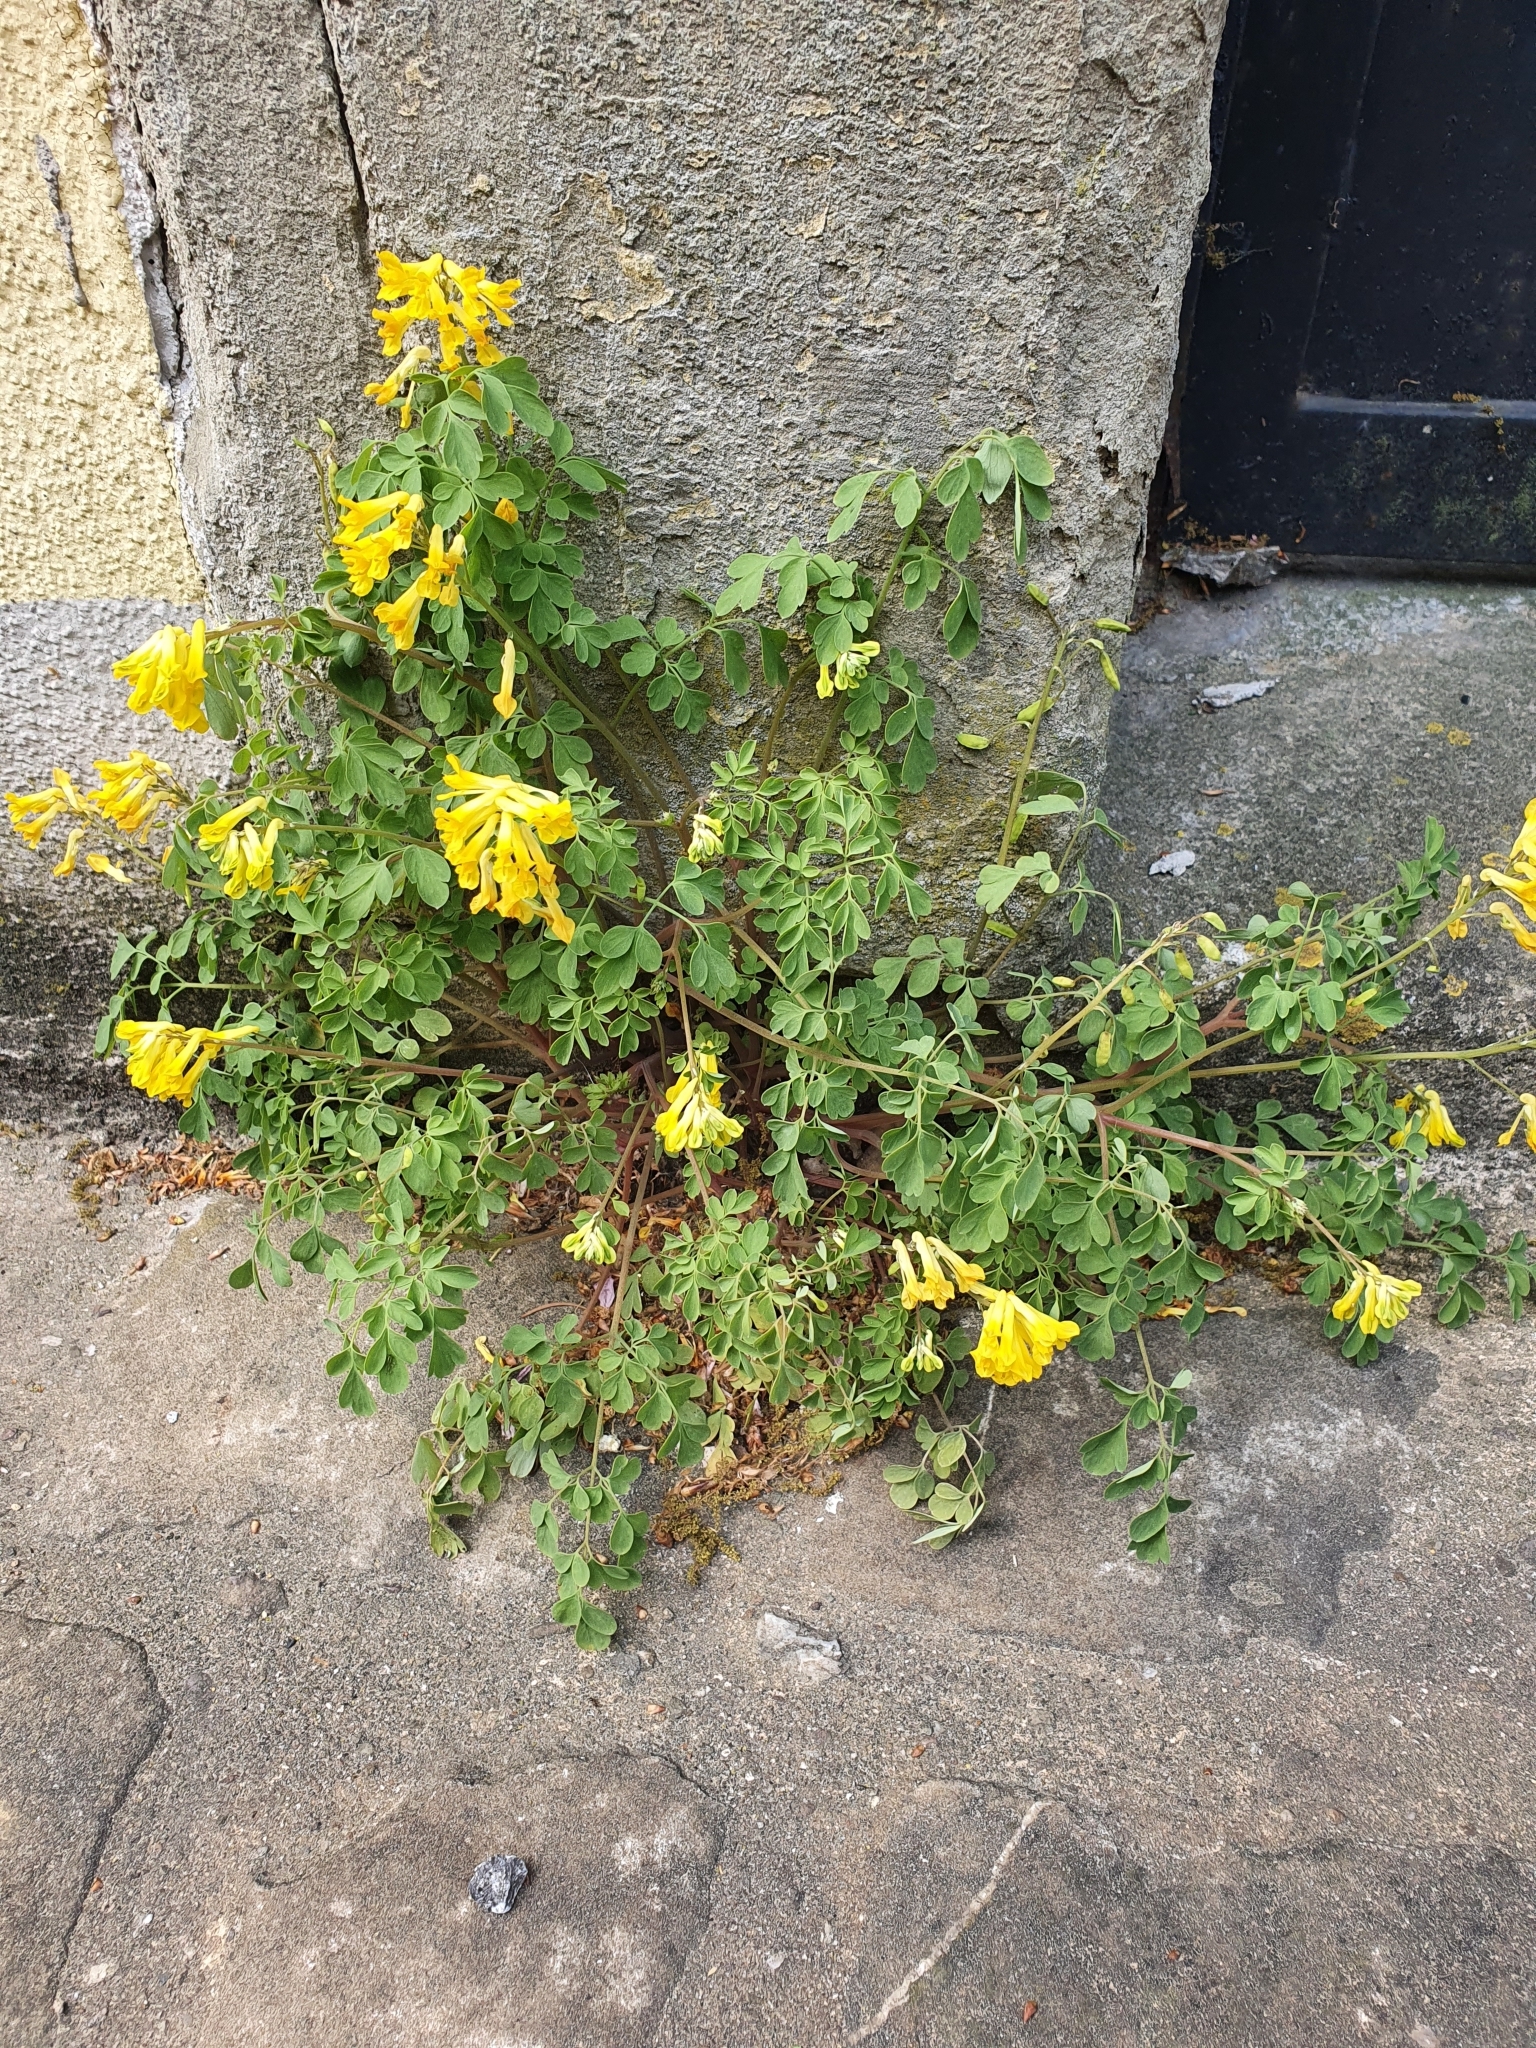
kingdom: Plantae
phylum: Tracheophyta
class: Magnoliopsida
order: Ranunculales
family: Papaveraceae
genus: Pseudofumaria
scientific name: Pseudofumaria lutea
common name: Yellow corydalis
